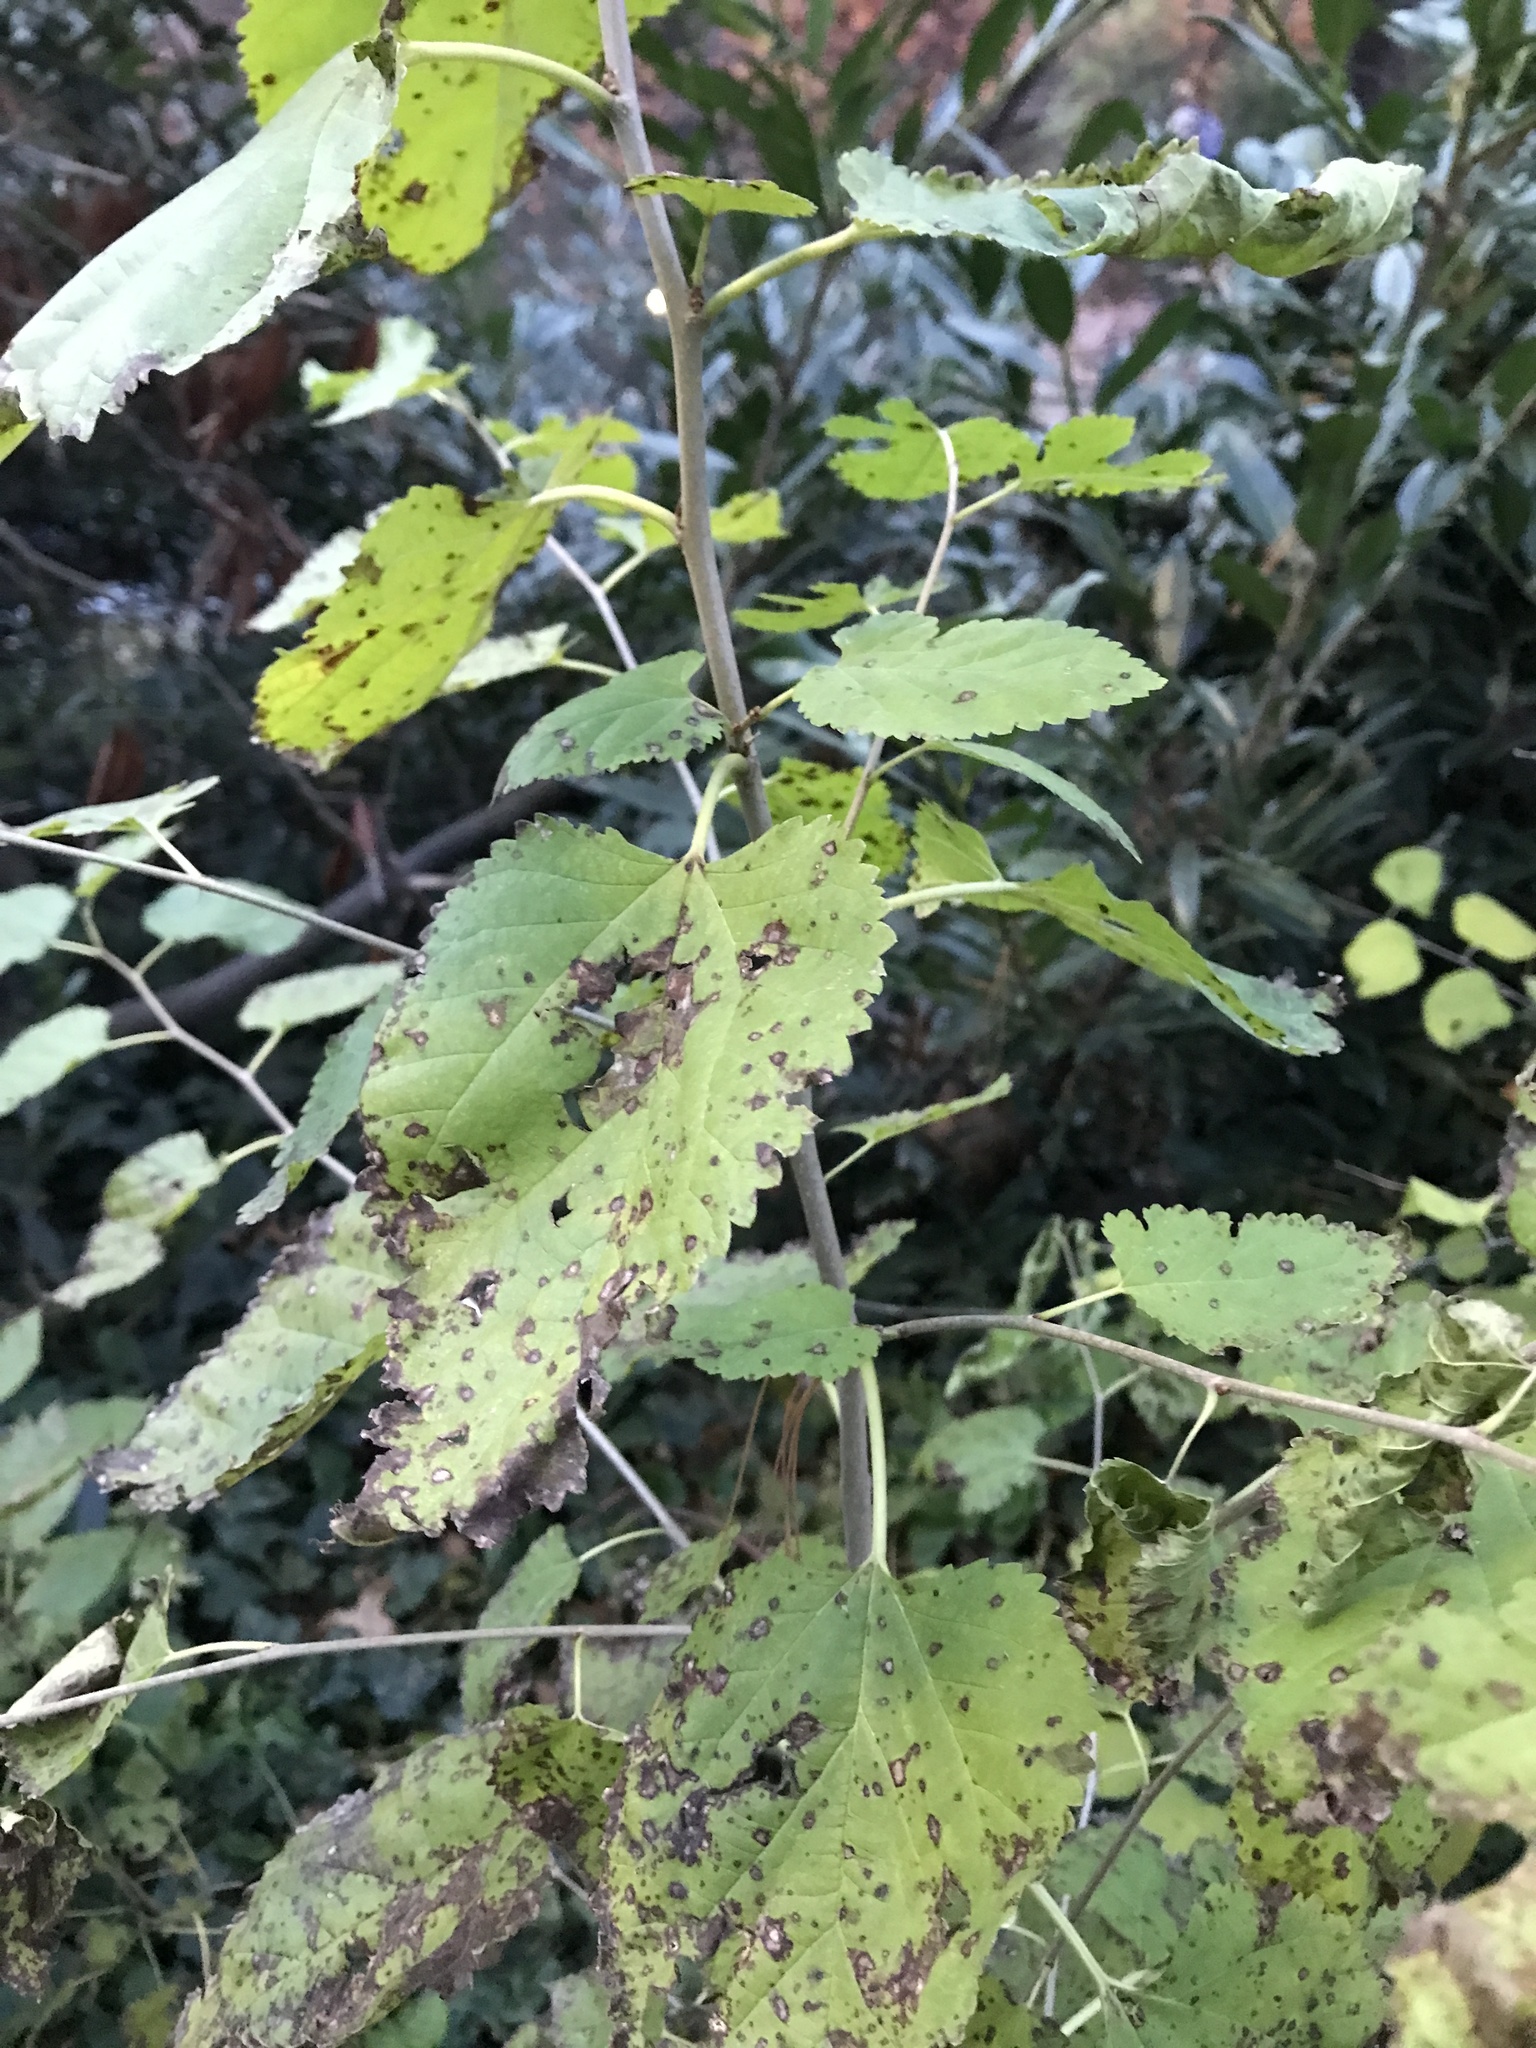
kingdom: Plantae
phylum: Tracheophyta
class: Magnoliopsida
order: Rosales
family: Moraceae
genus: Morus
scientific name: Morus alba
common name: White mulberry
